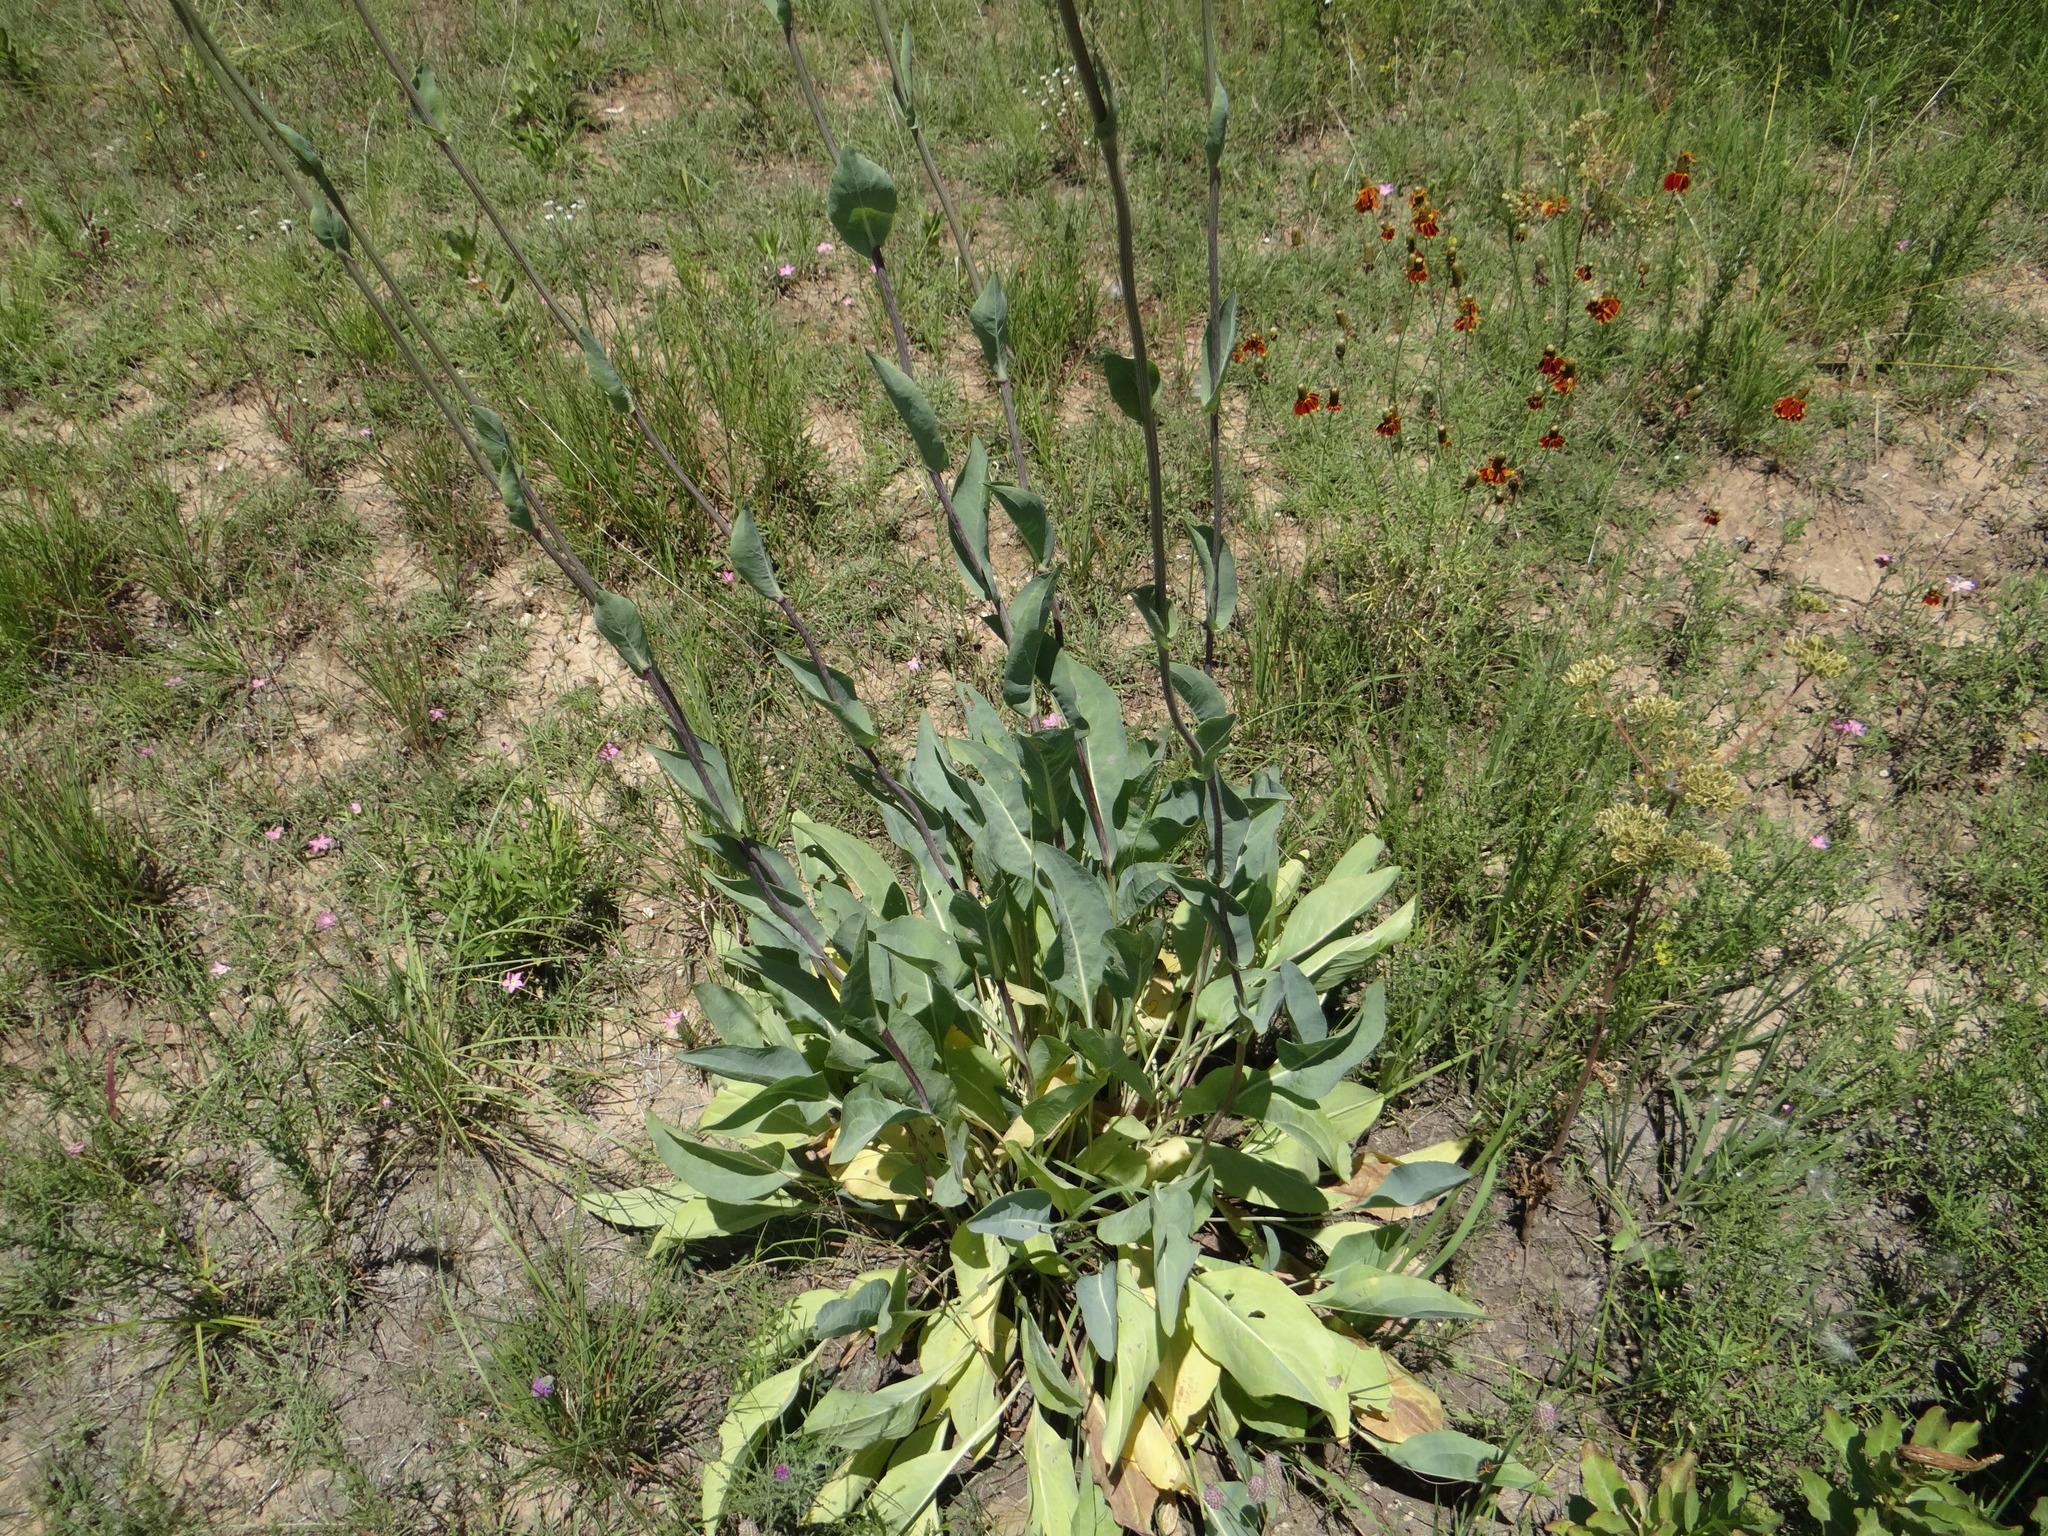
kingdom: Plantae
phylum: Tracheophyta
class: Magnoliopsida
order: Asterales
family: Asteraceae
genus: Rudbeckia
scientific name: Rudbeckia maxima
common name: Cabbage coneflower
